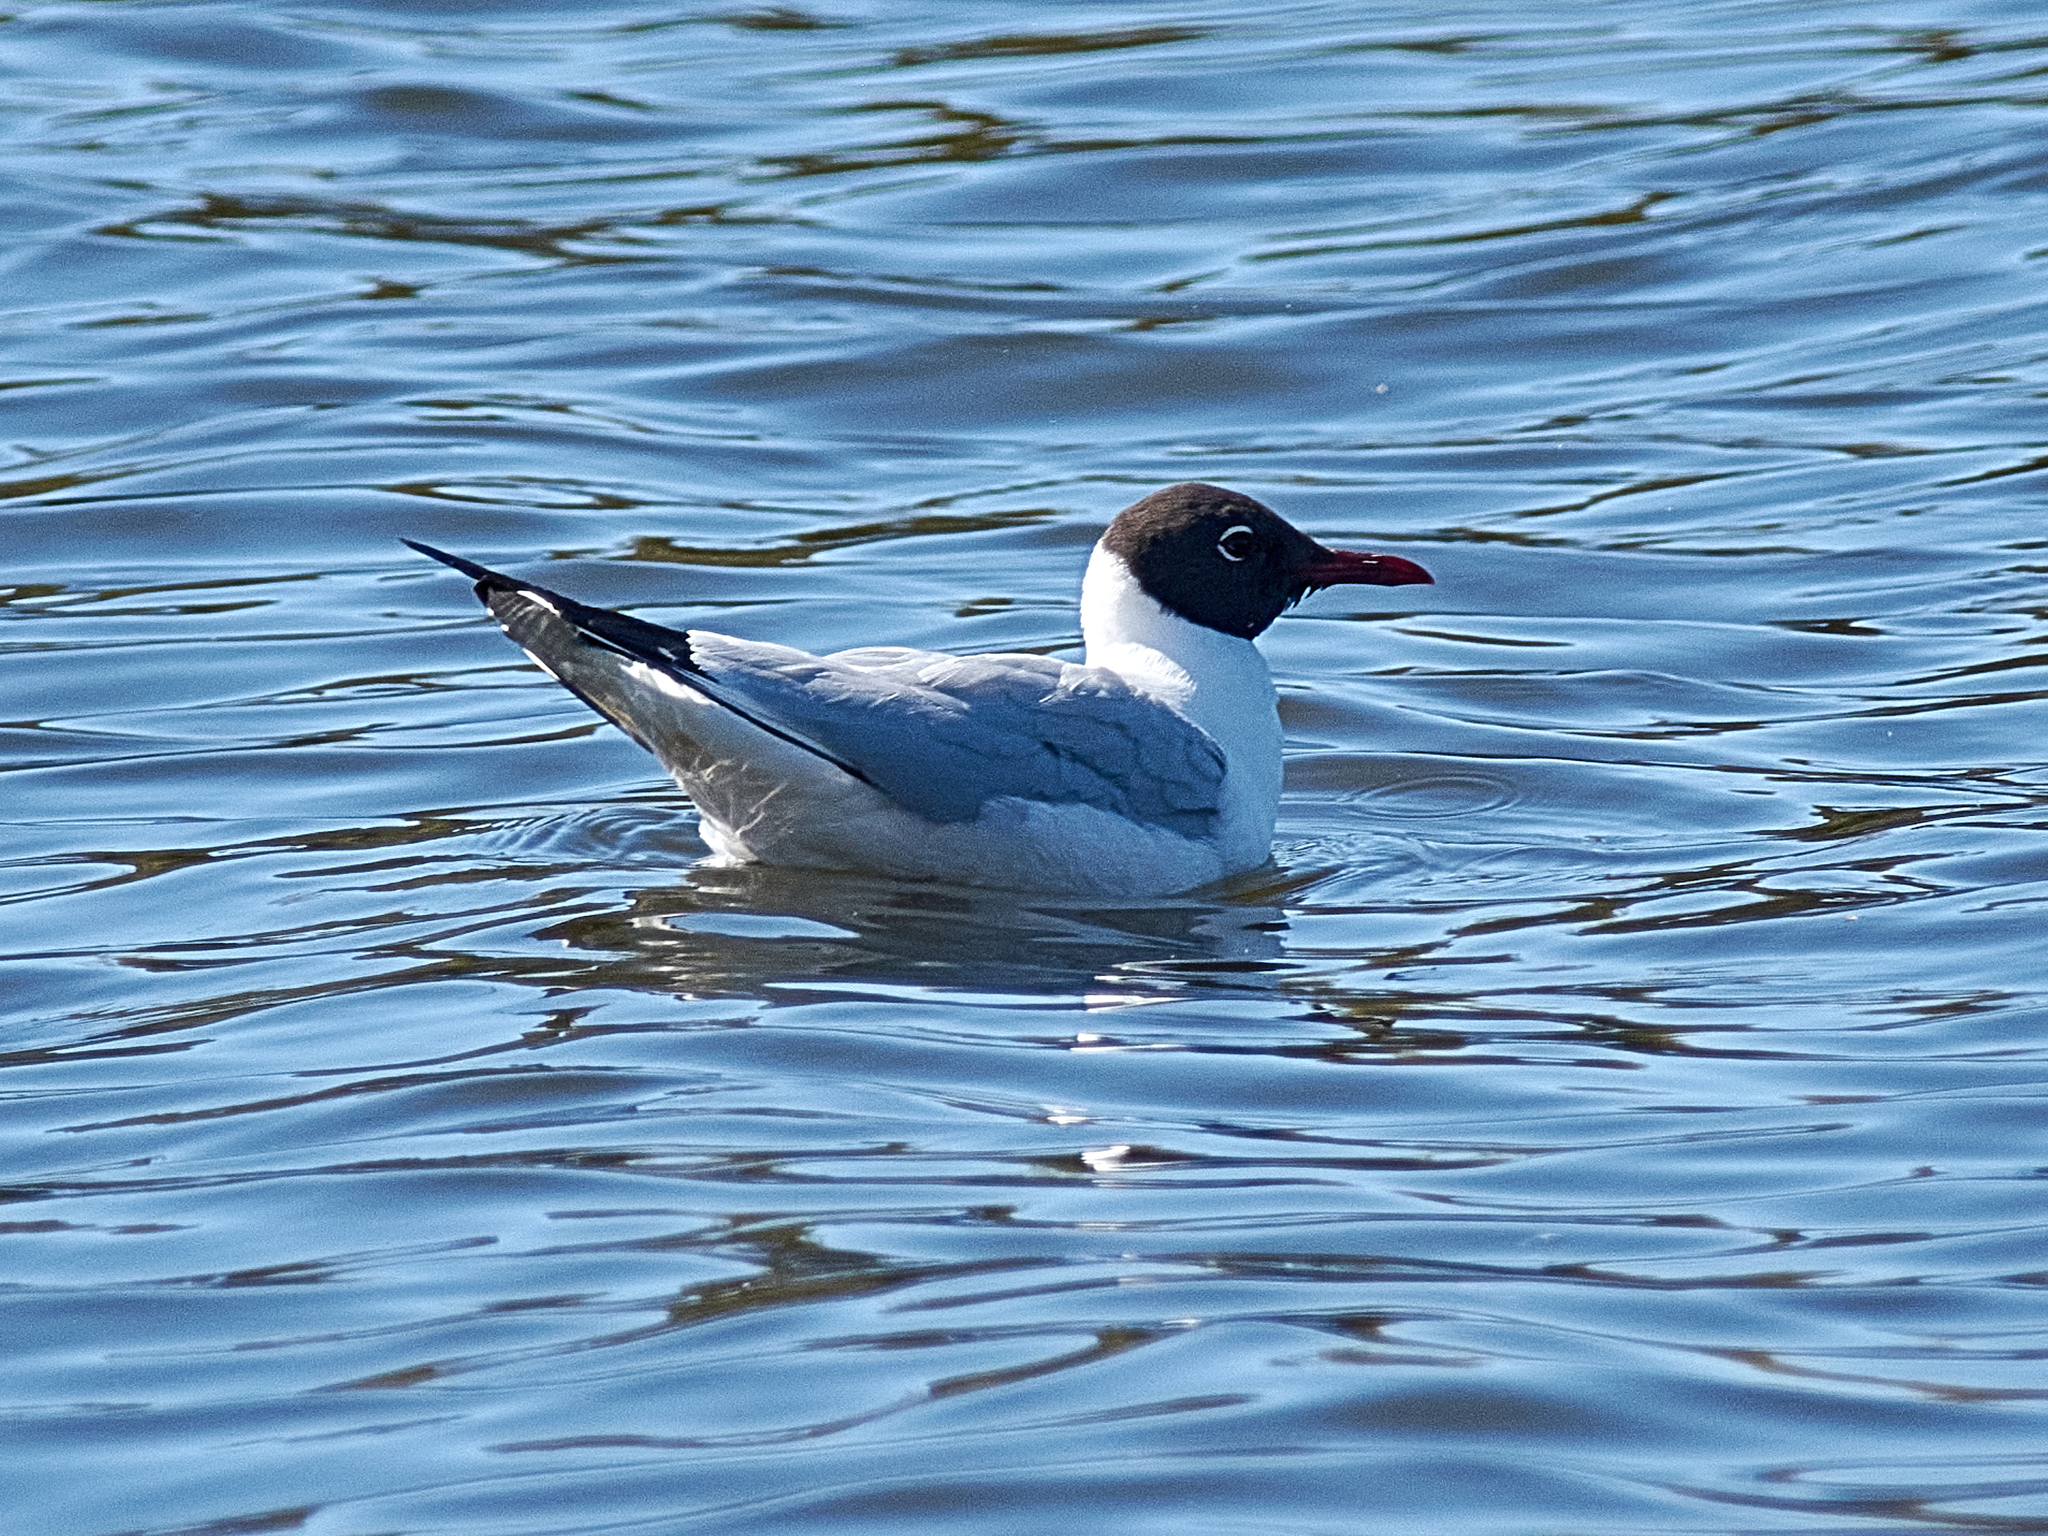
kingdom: Animalia
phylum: Chordata
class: Aves
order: Charadriiformes
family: Laridae
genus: Chroicocephalus
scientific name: Chroicocephalus ridibundus
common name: Black-headed gull
